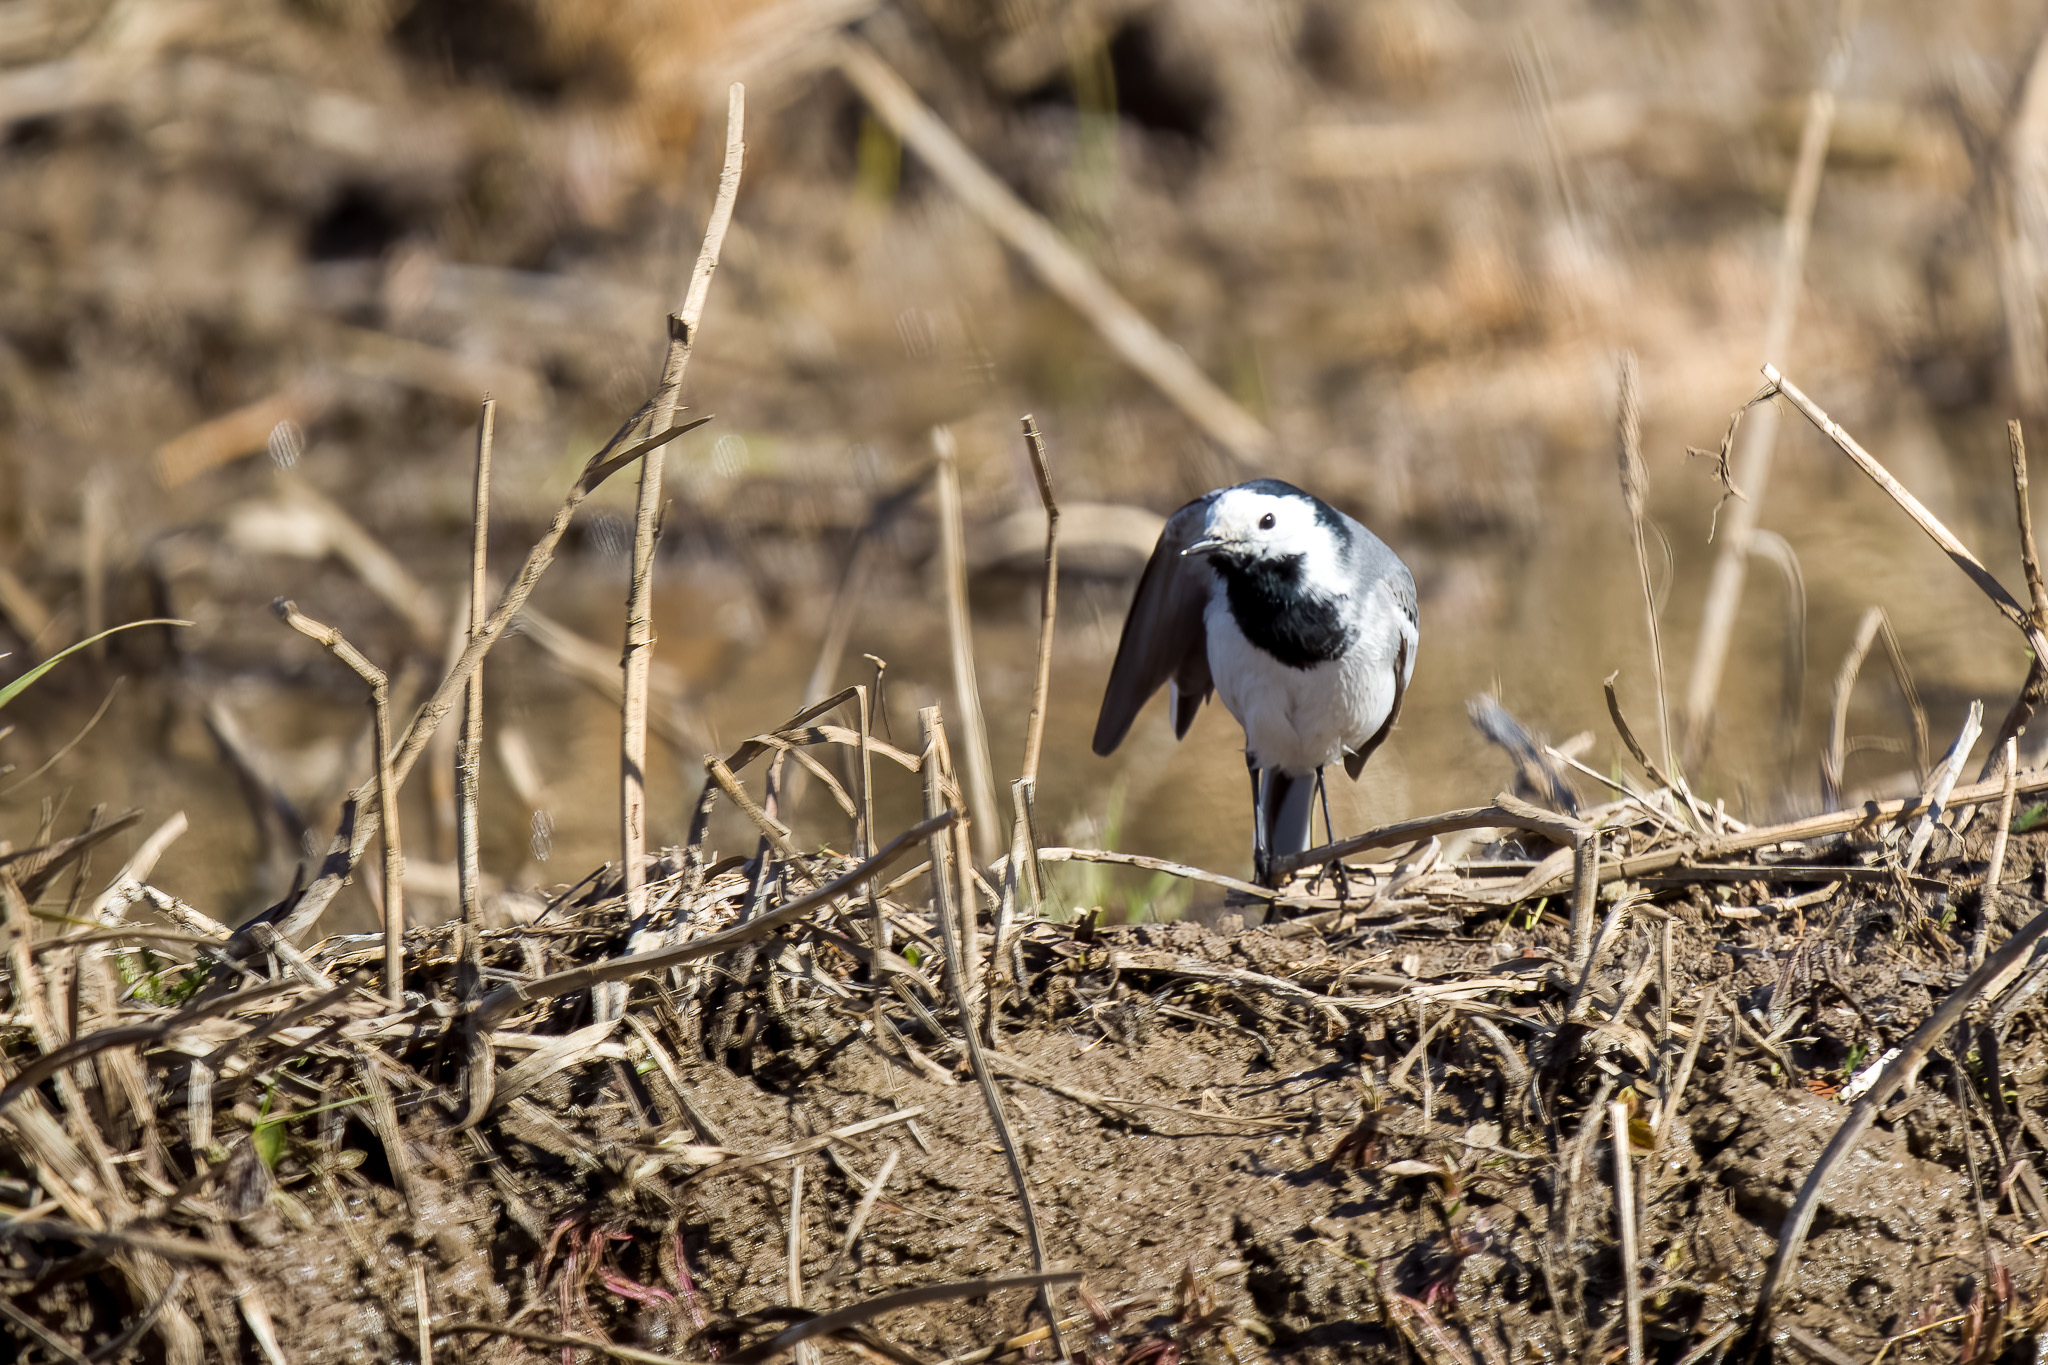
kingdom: Animalia
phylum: Chordata
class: Aves
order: Passeriformes
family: Motacillidae
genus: Motacilla
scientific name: Motacilla alba
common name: White wagtail
